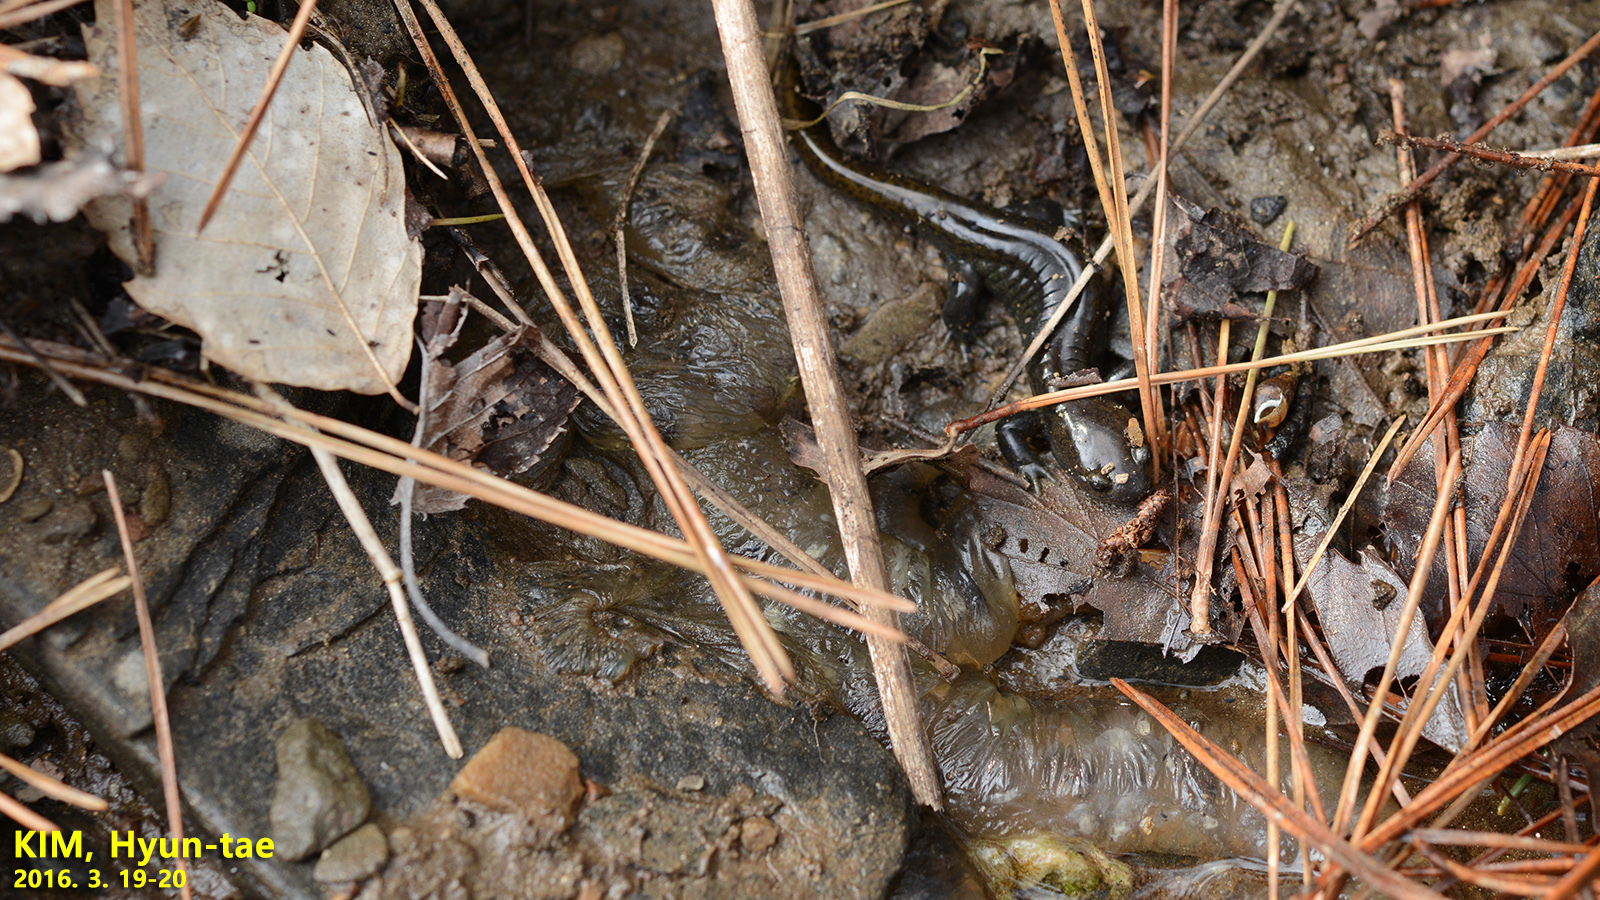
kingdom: Animalia
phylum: Chordata
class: Amphibia
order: Caudata
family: Hynobiidae
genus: Hynobius
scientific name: Hynobius leechii
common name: Gensan salamander
